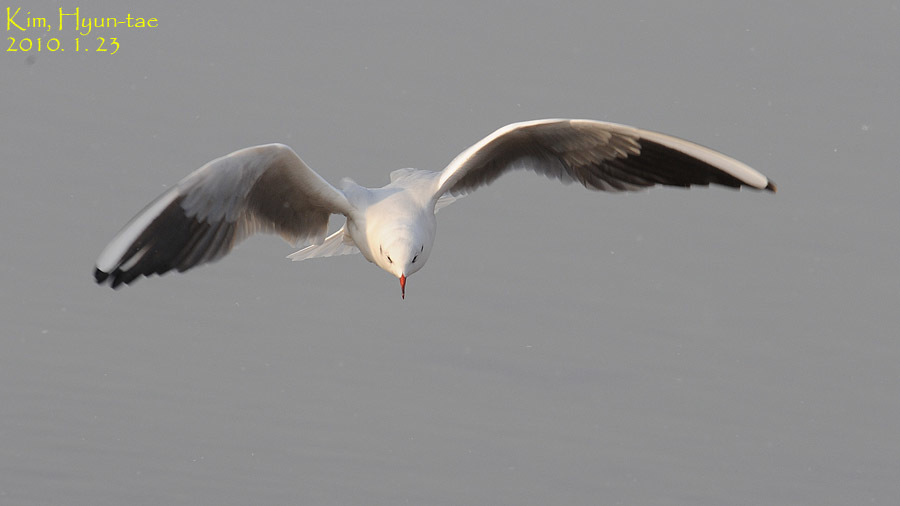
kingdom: Animalia
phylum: Chordata
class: Aves
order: Charadriiformes
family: Laridae
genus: Chroicocephalus
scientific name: Chroicocephalus ridibundus
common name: Black-headed gull
